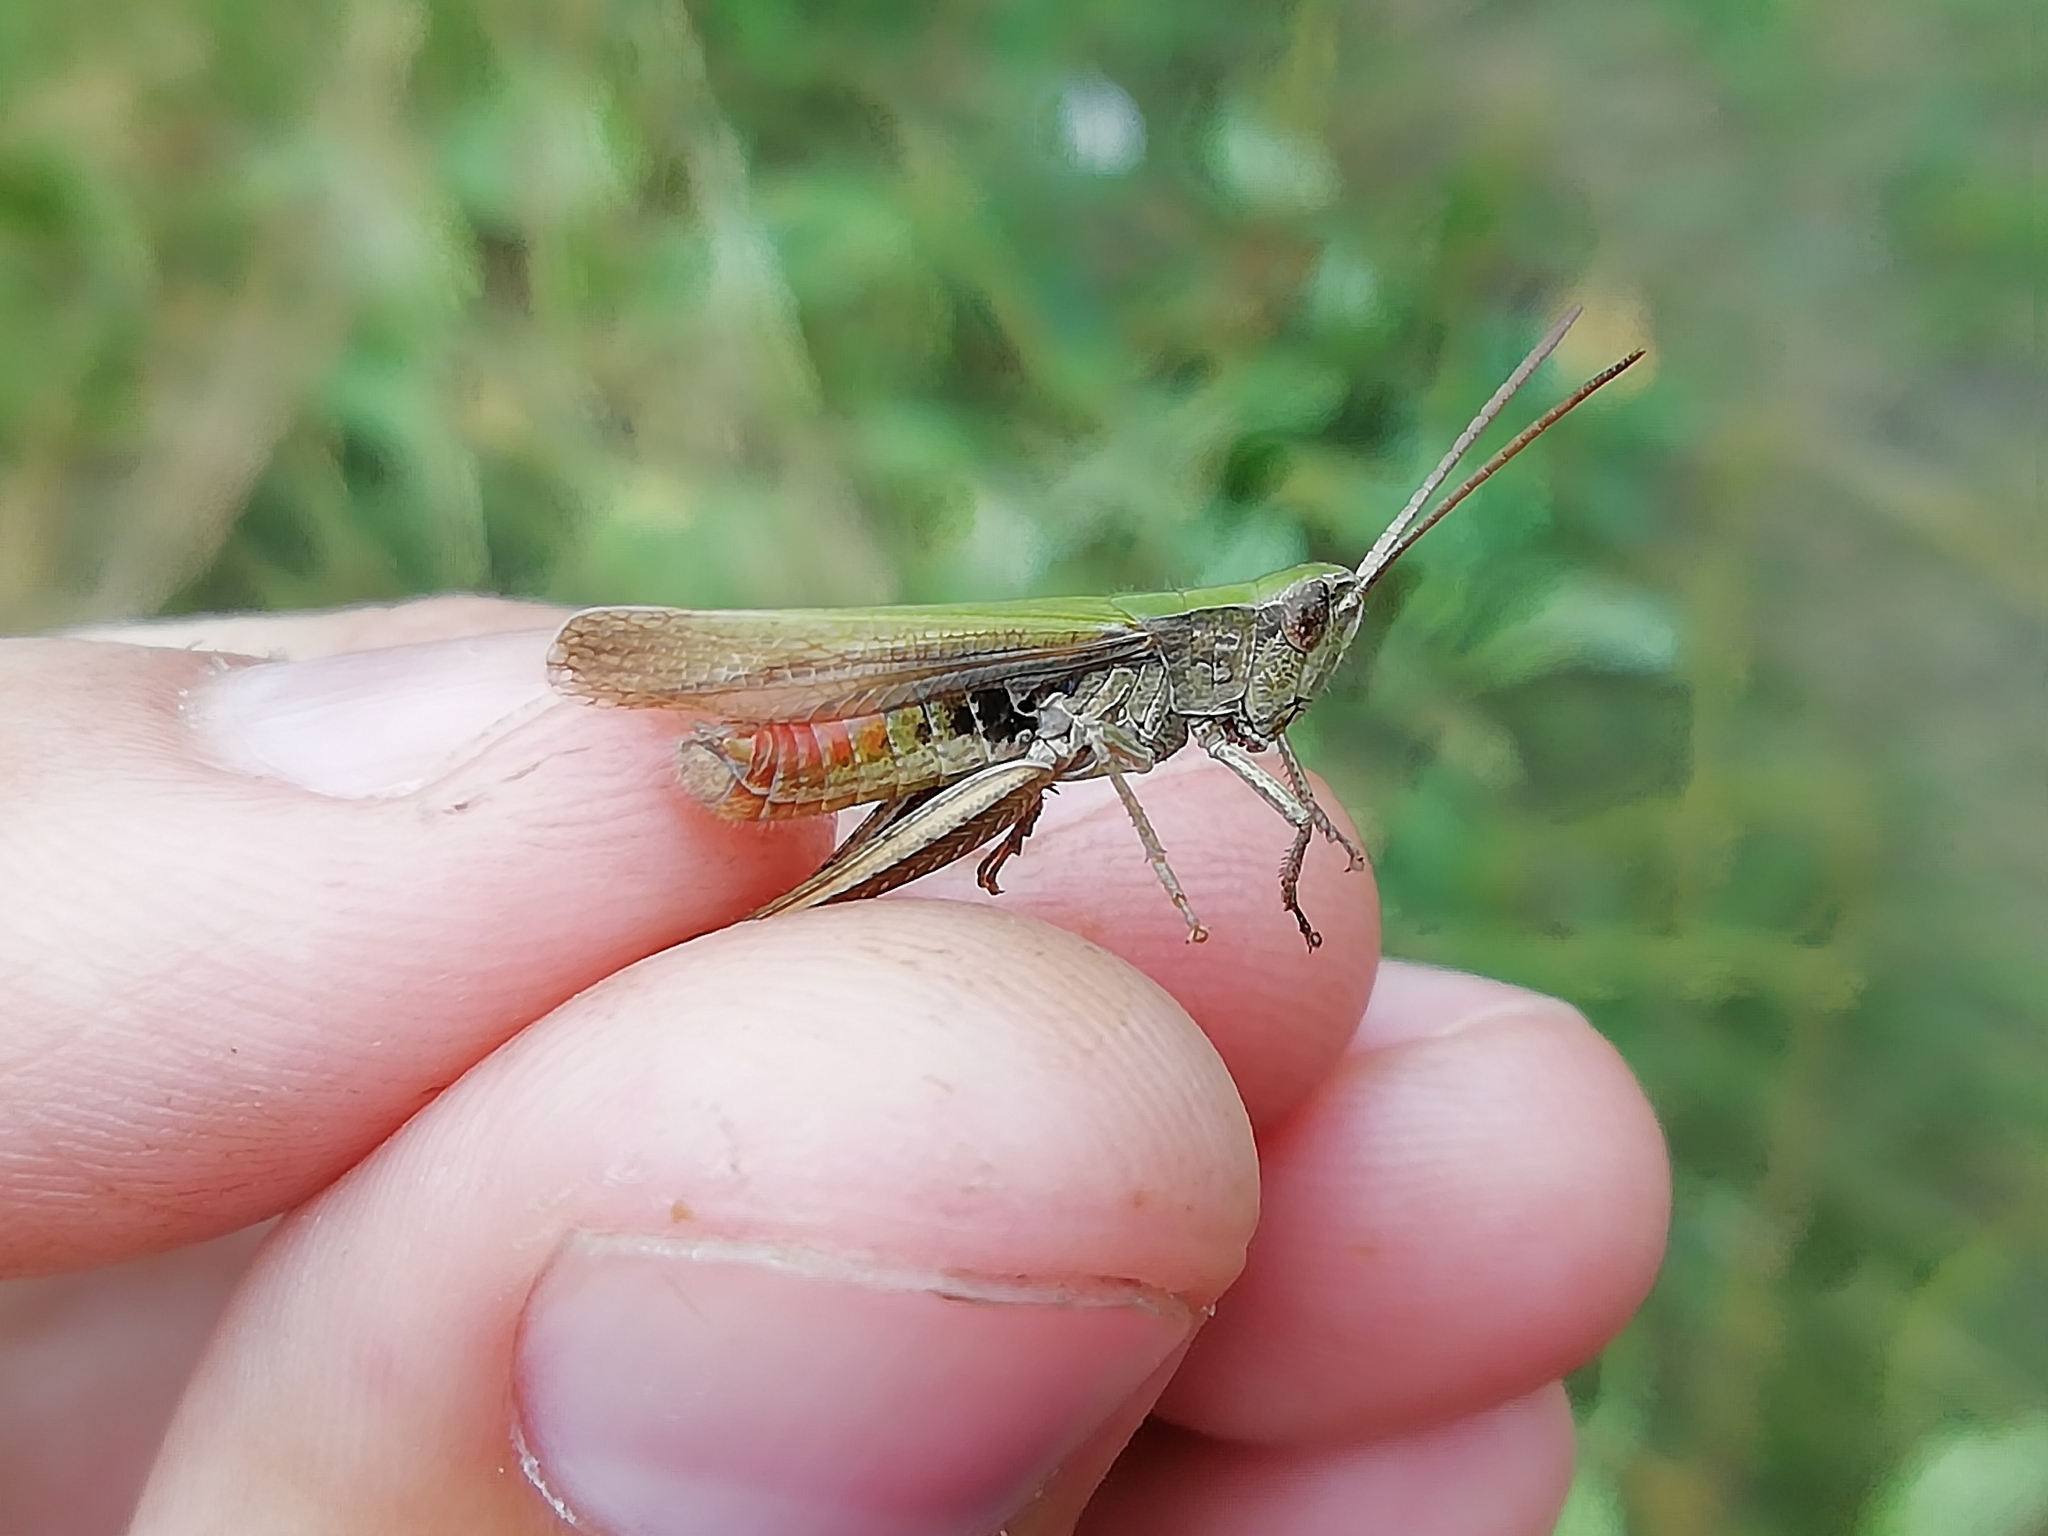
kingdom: Animalia
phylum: Arthropoda
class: Insecta
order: Orthoptera
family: Acrididae
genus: Chorthippus
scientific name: Chorthippus dorsatus
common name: Steppe grasshopper
